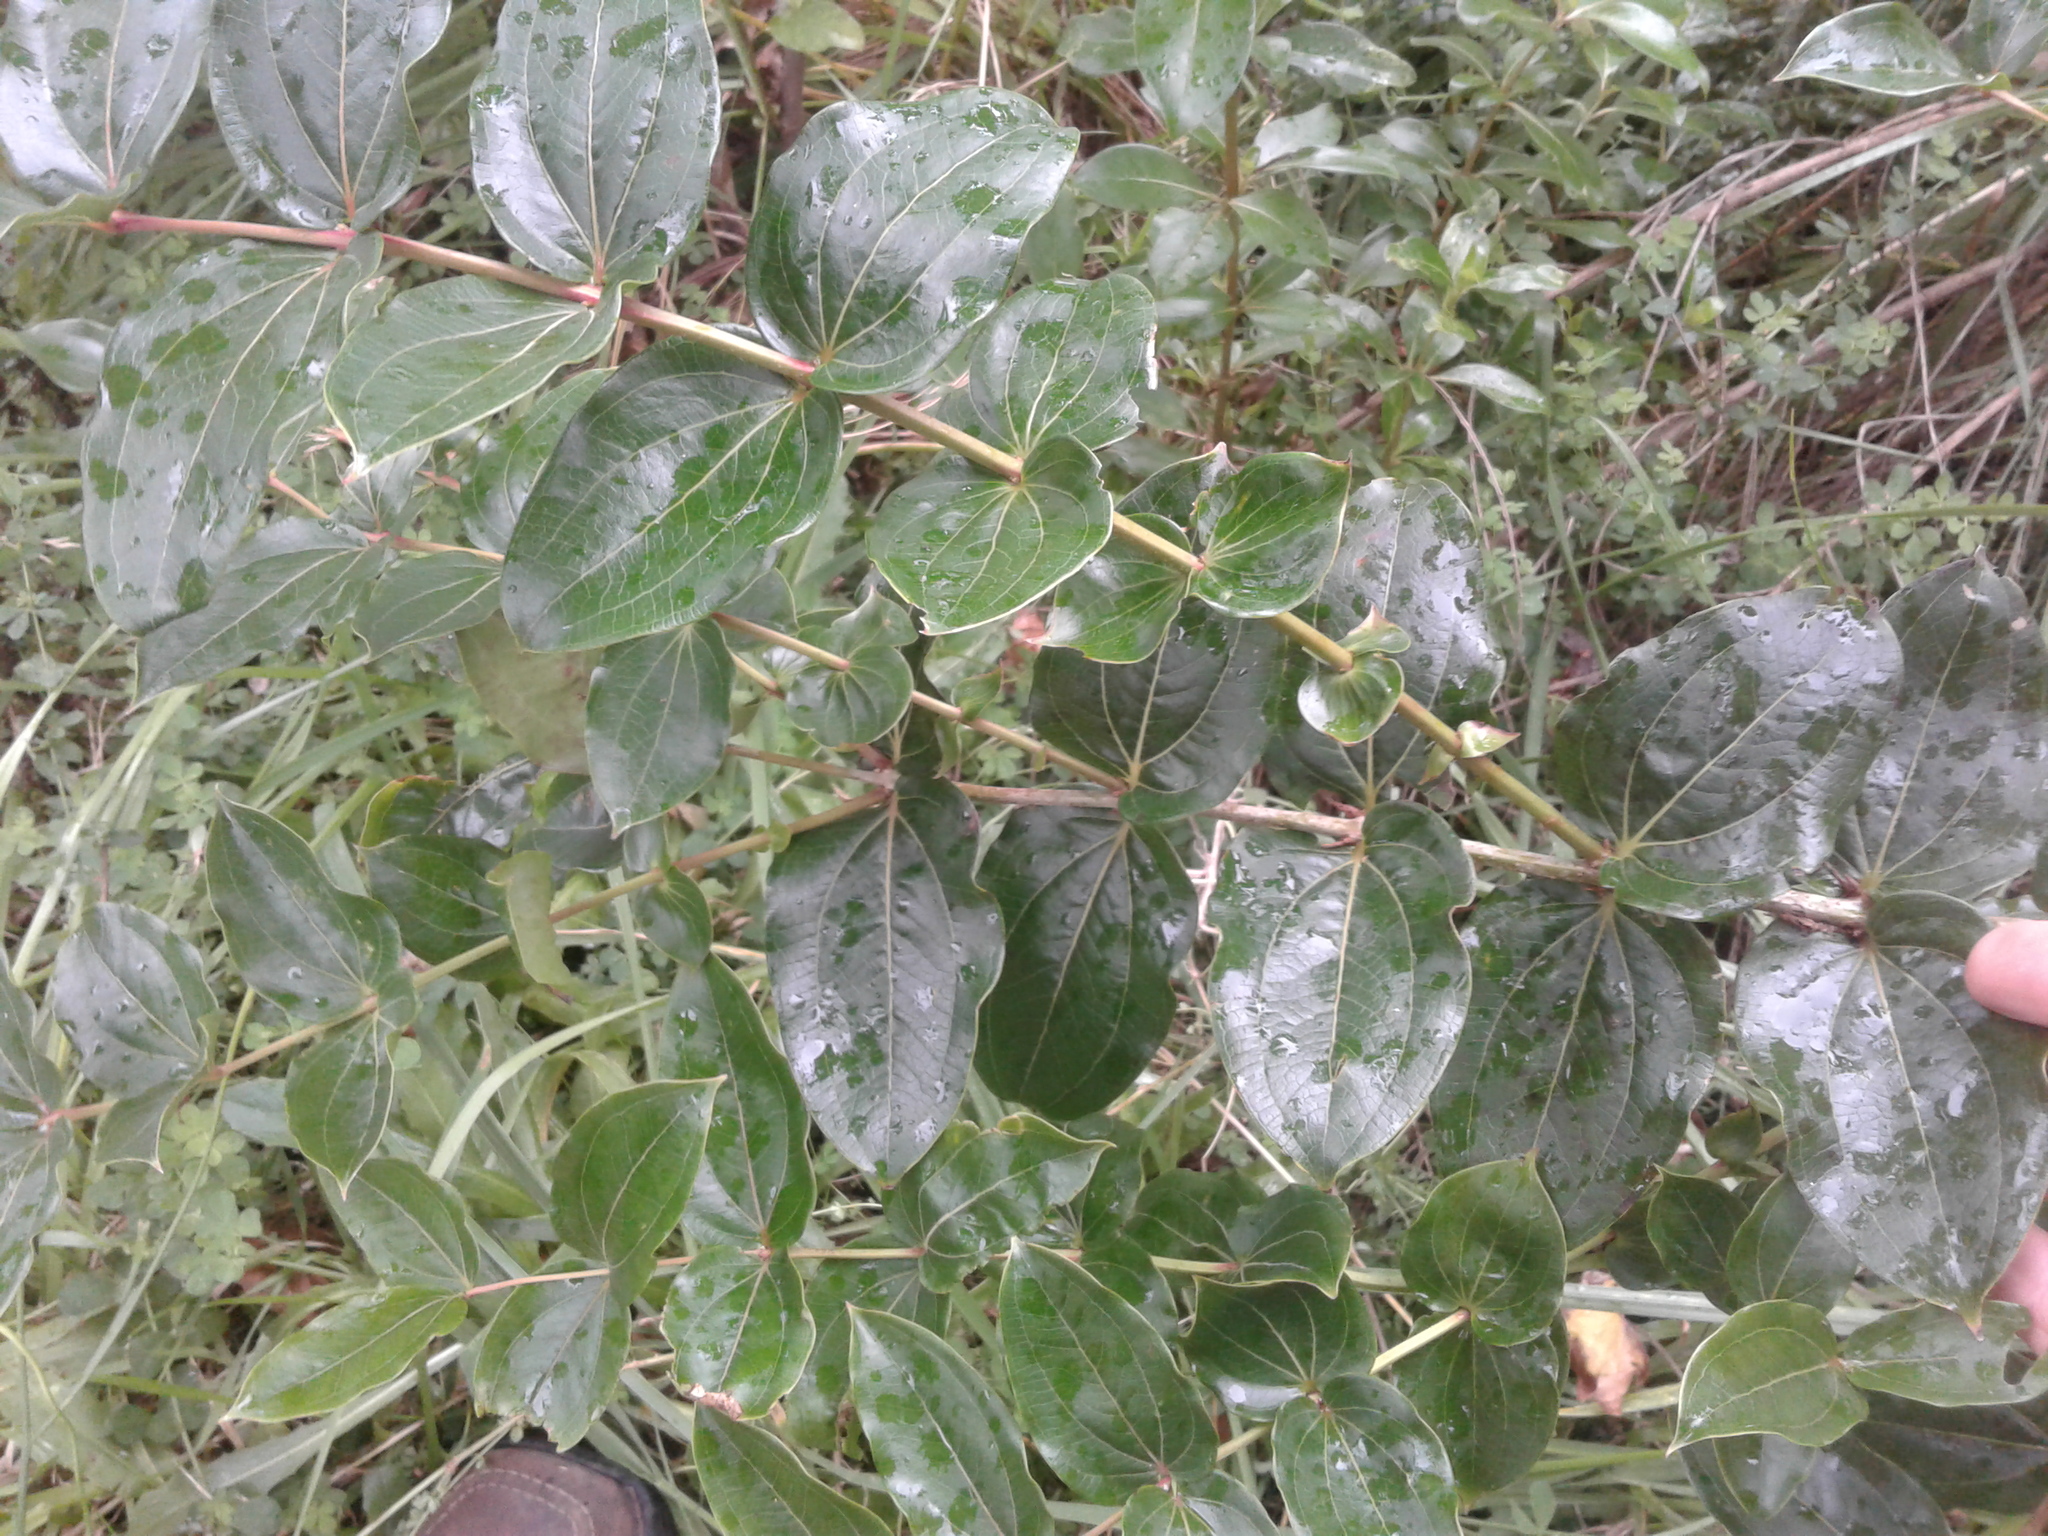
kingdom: Plantae
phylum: Tracheophyta
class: Magnoliopsida
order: Cucurbitales
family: Coriariaceae
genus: Coriaria
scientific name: Coriaria arborea
